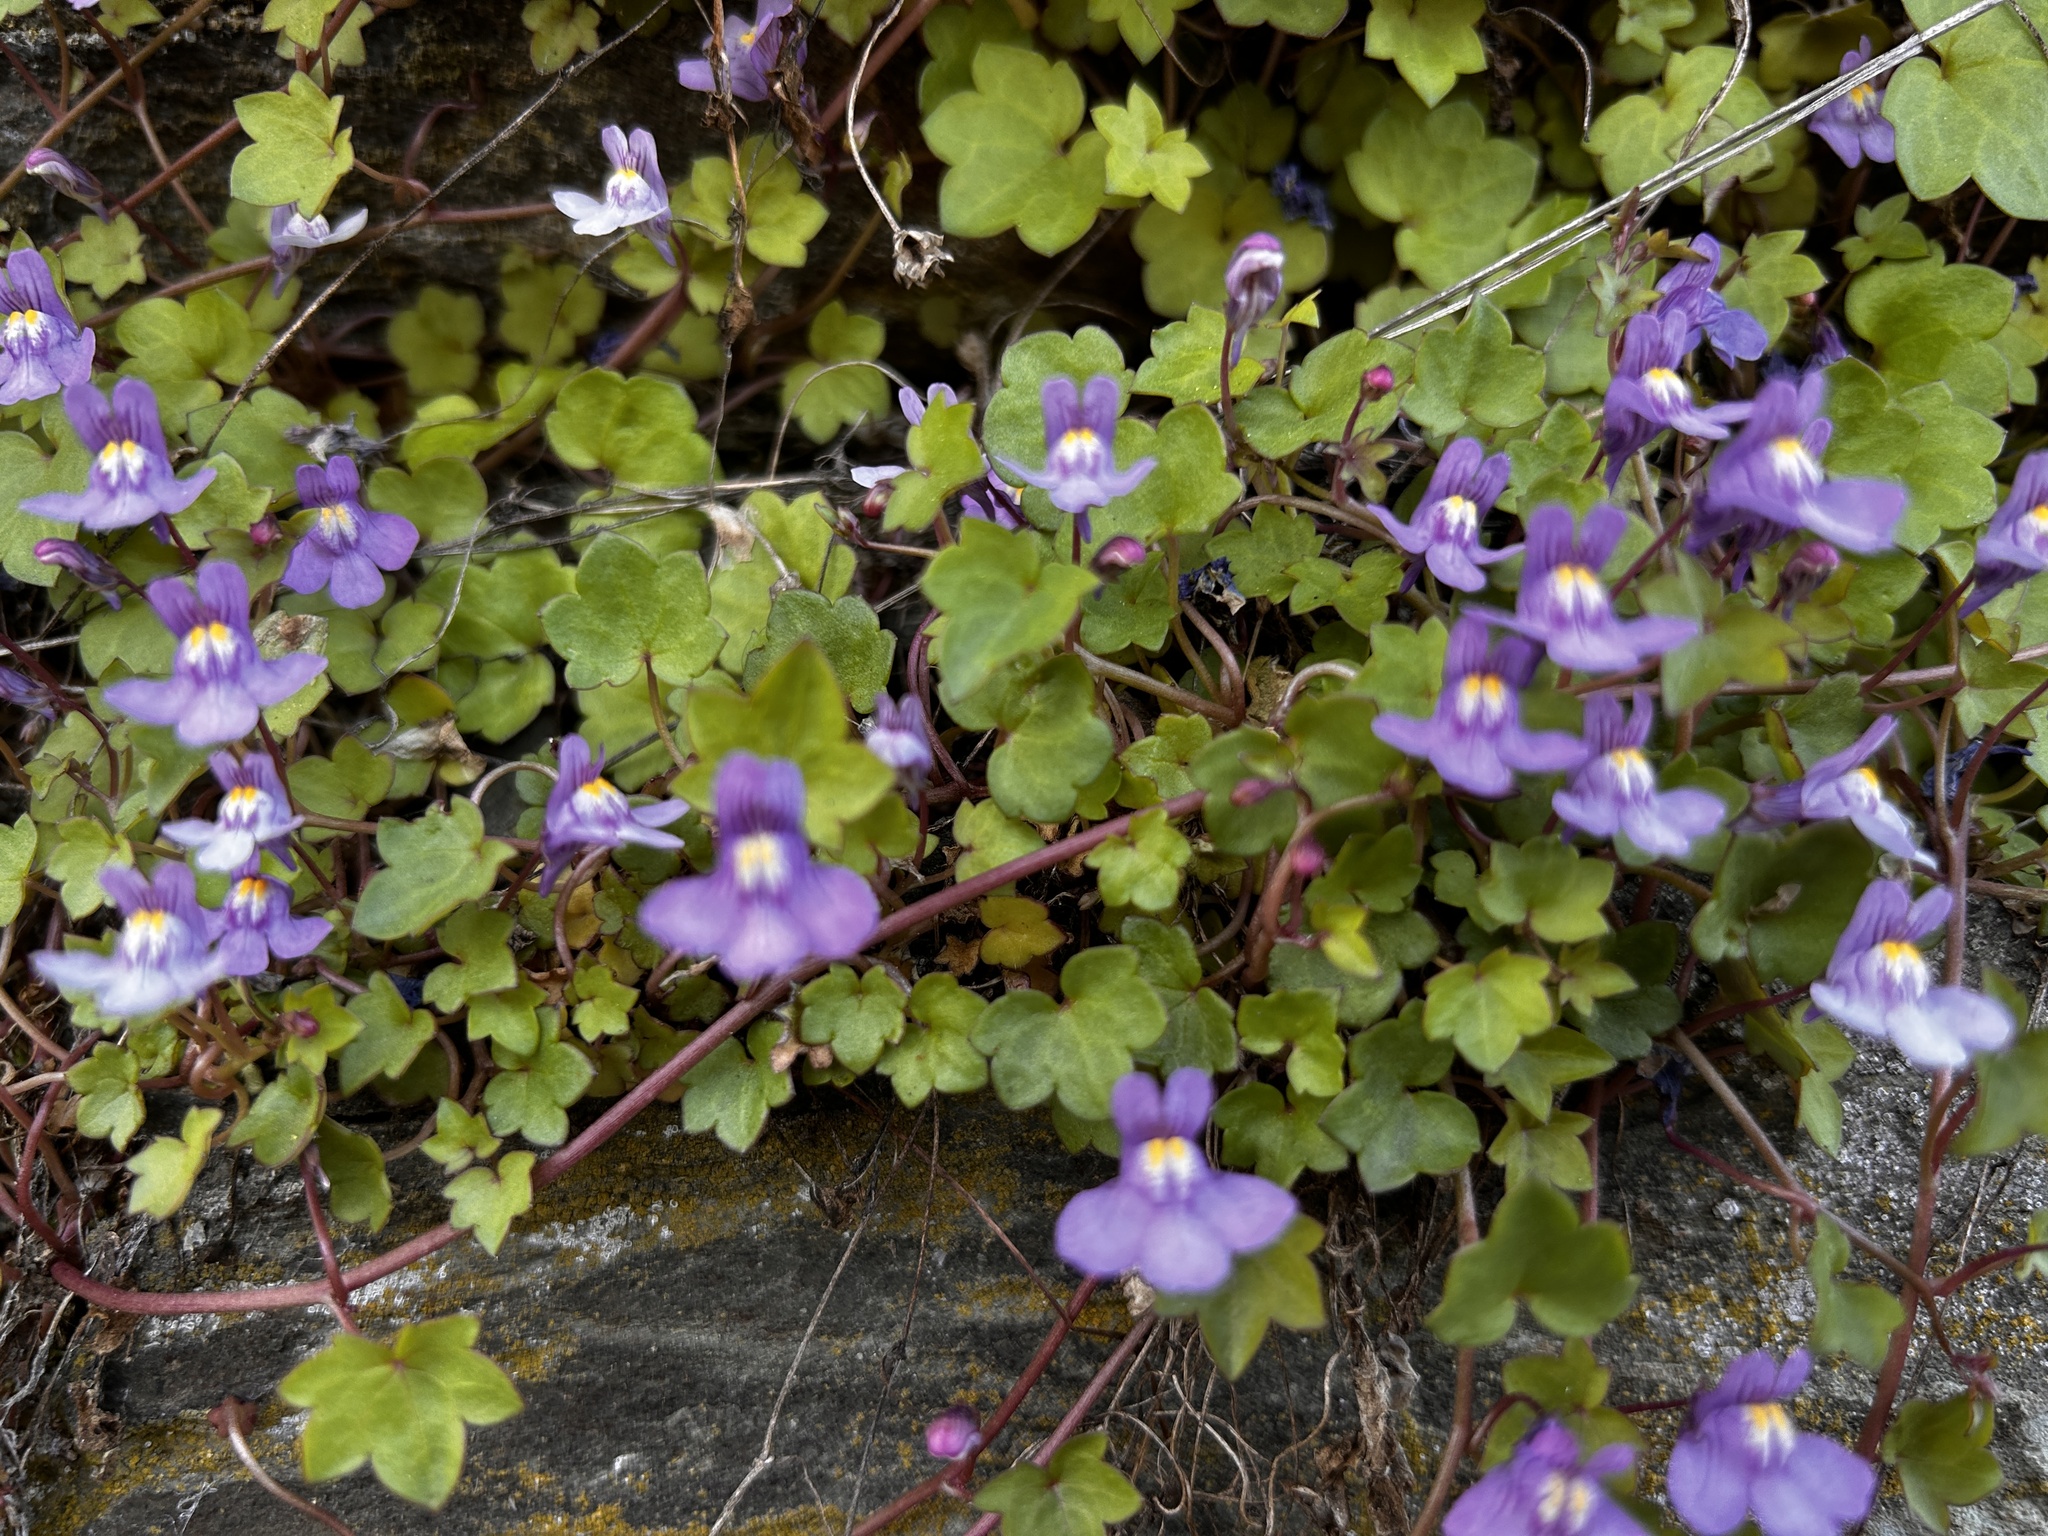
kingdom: Plantae
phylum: Tracheophyta
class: Magnoliopsida
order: Lamiales
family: Plantaginaceae
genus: Cymbalaria
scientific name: Cymbalaria muralis
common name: Ivy-leaved toadflax
